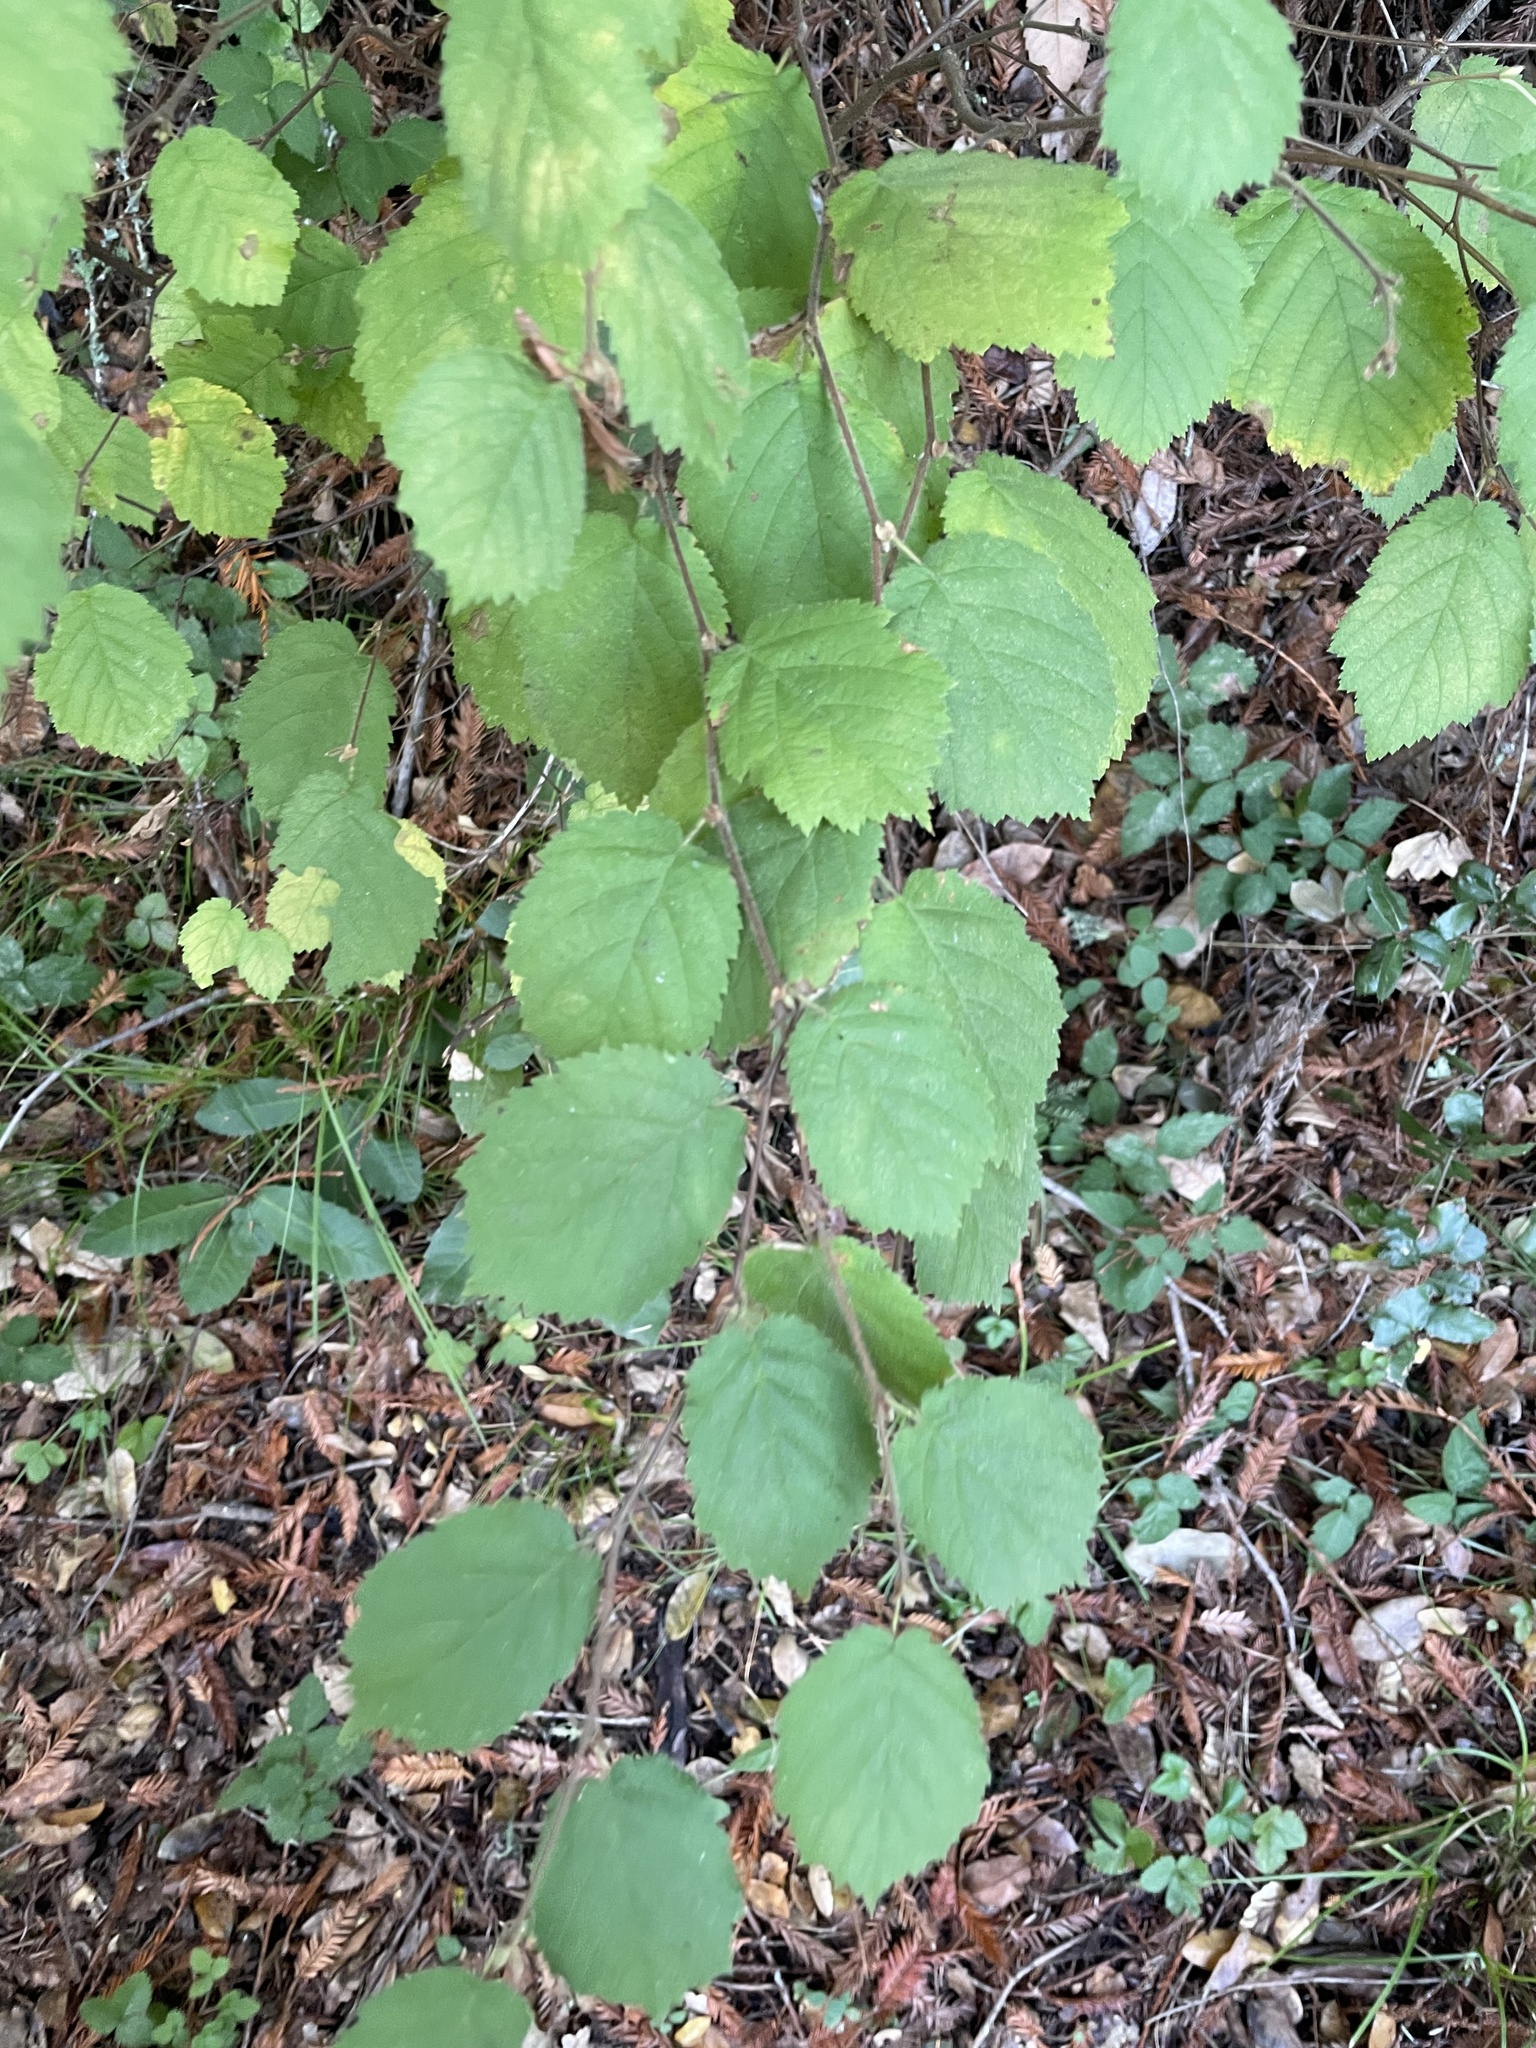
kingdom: Plantae
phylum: Tracheophyta
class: Magnoliopsida
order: Fagales
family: Betulaceae
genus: Corylus
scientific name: Corylus cornuta
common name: Beaked hazel
